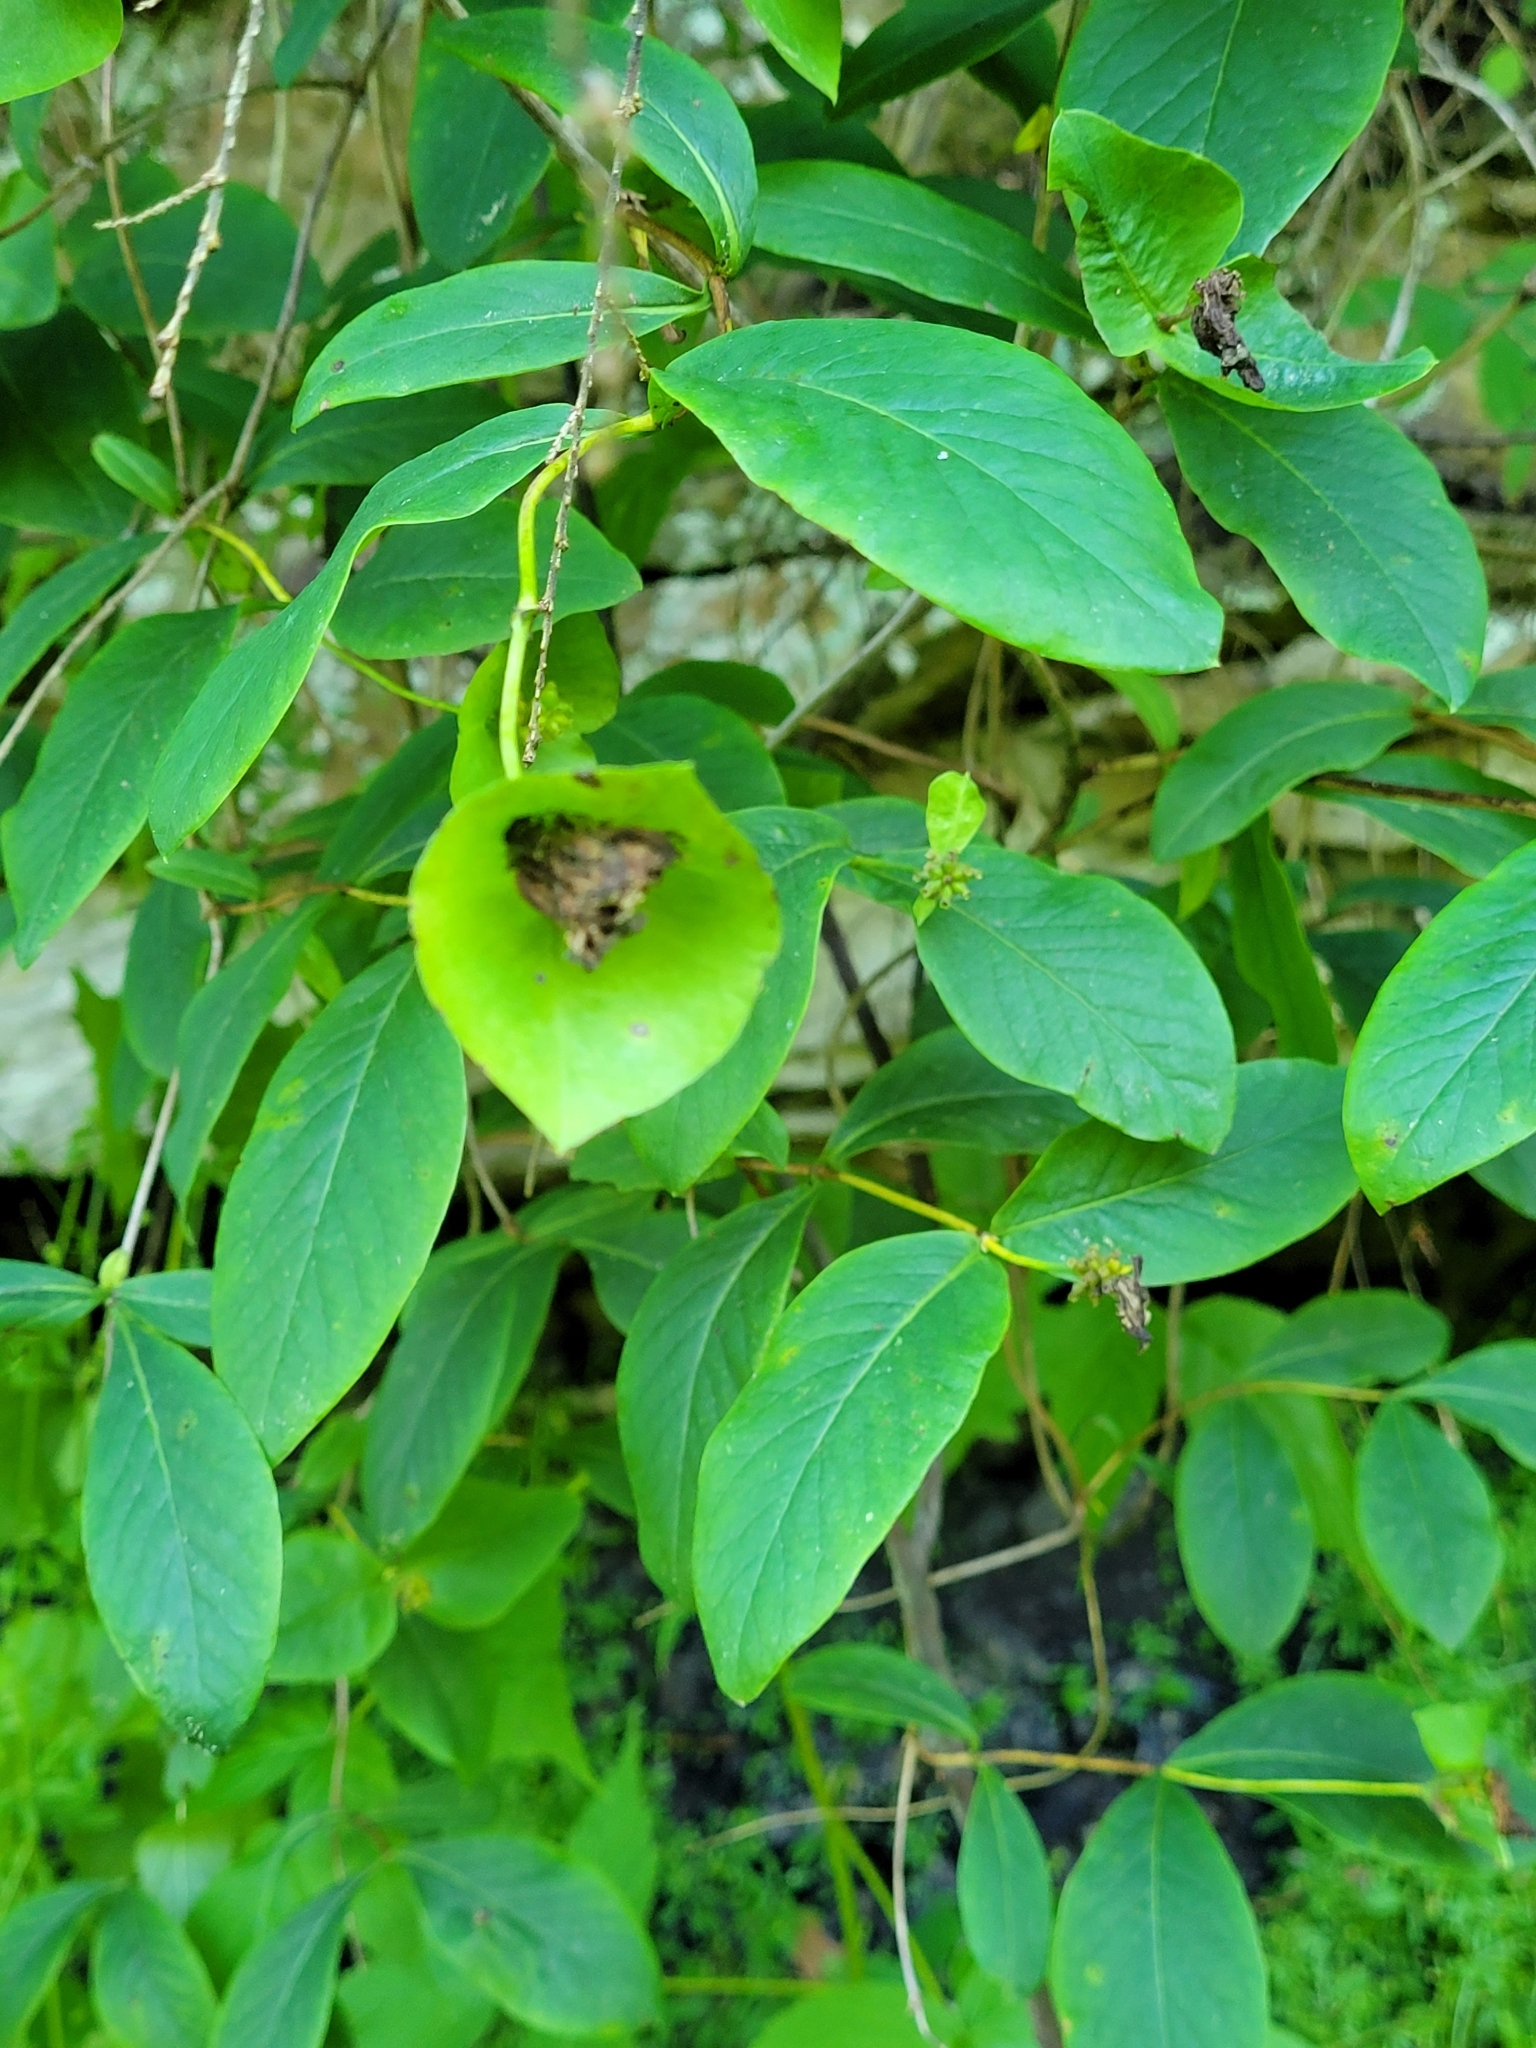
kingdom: Plantae
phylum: Tracheophyta
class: Magnoliopsida
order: Dipsacales
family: Caprifoliaceae
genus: Lonicera
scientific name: Lonicera dioica
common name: Limber honeysuckle
